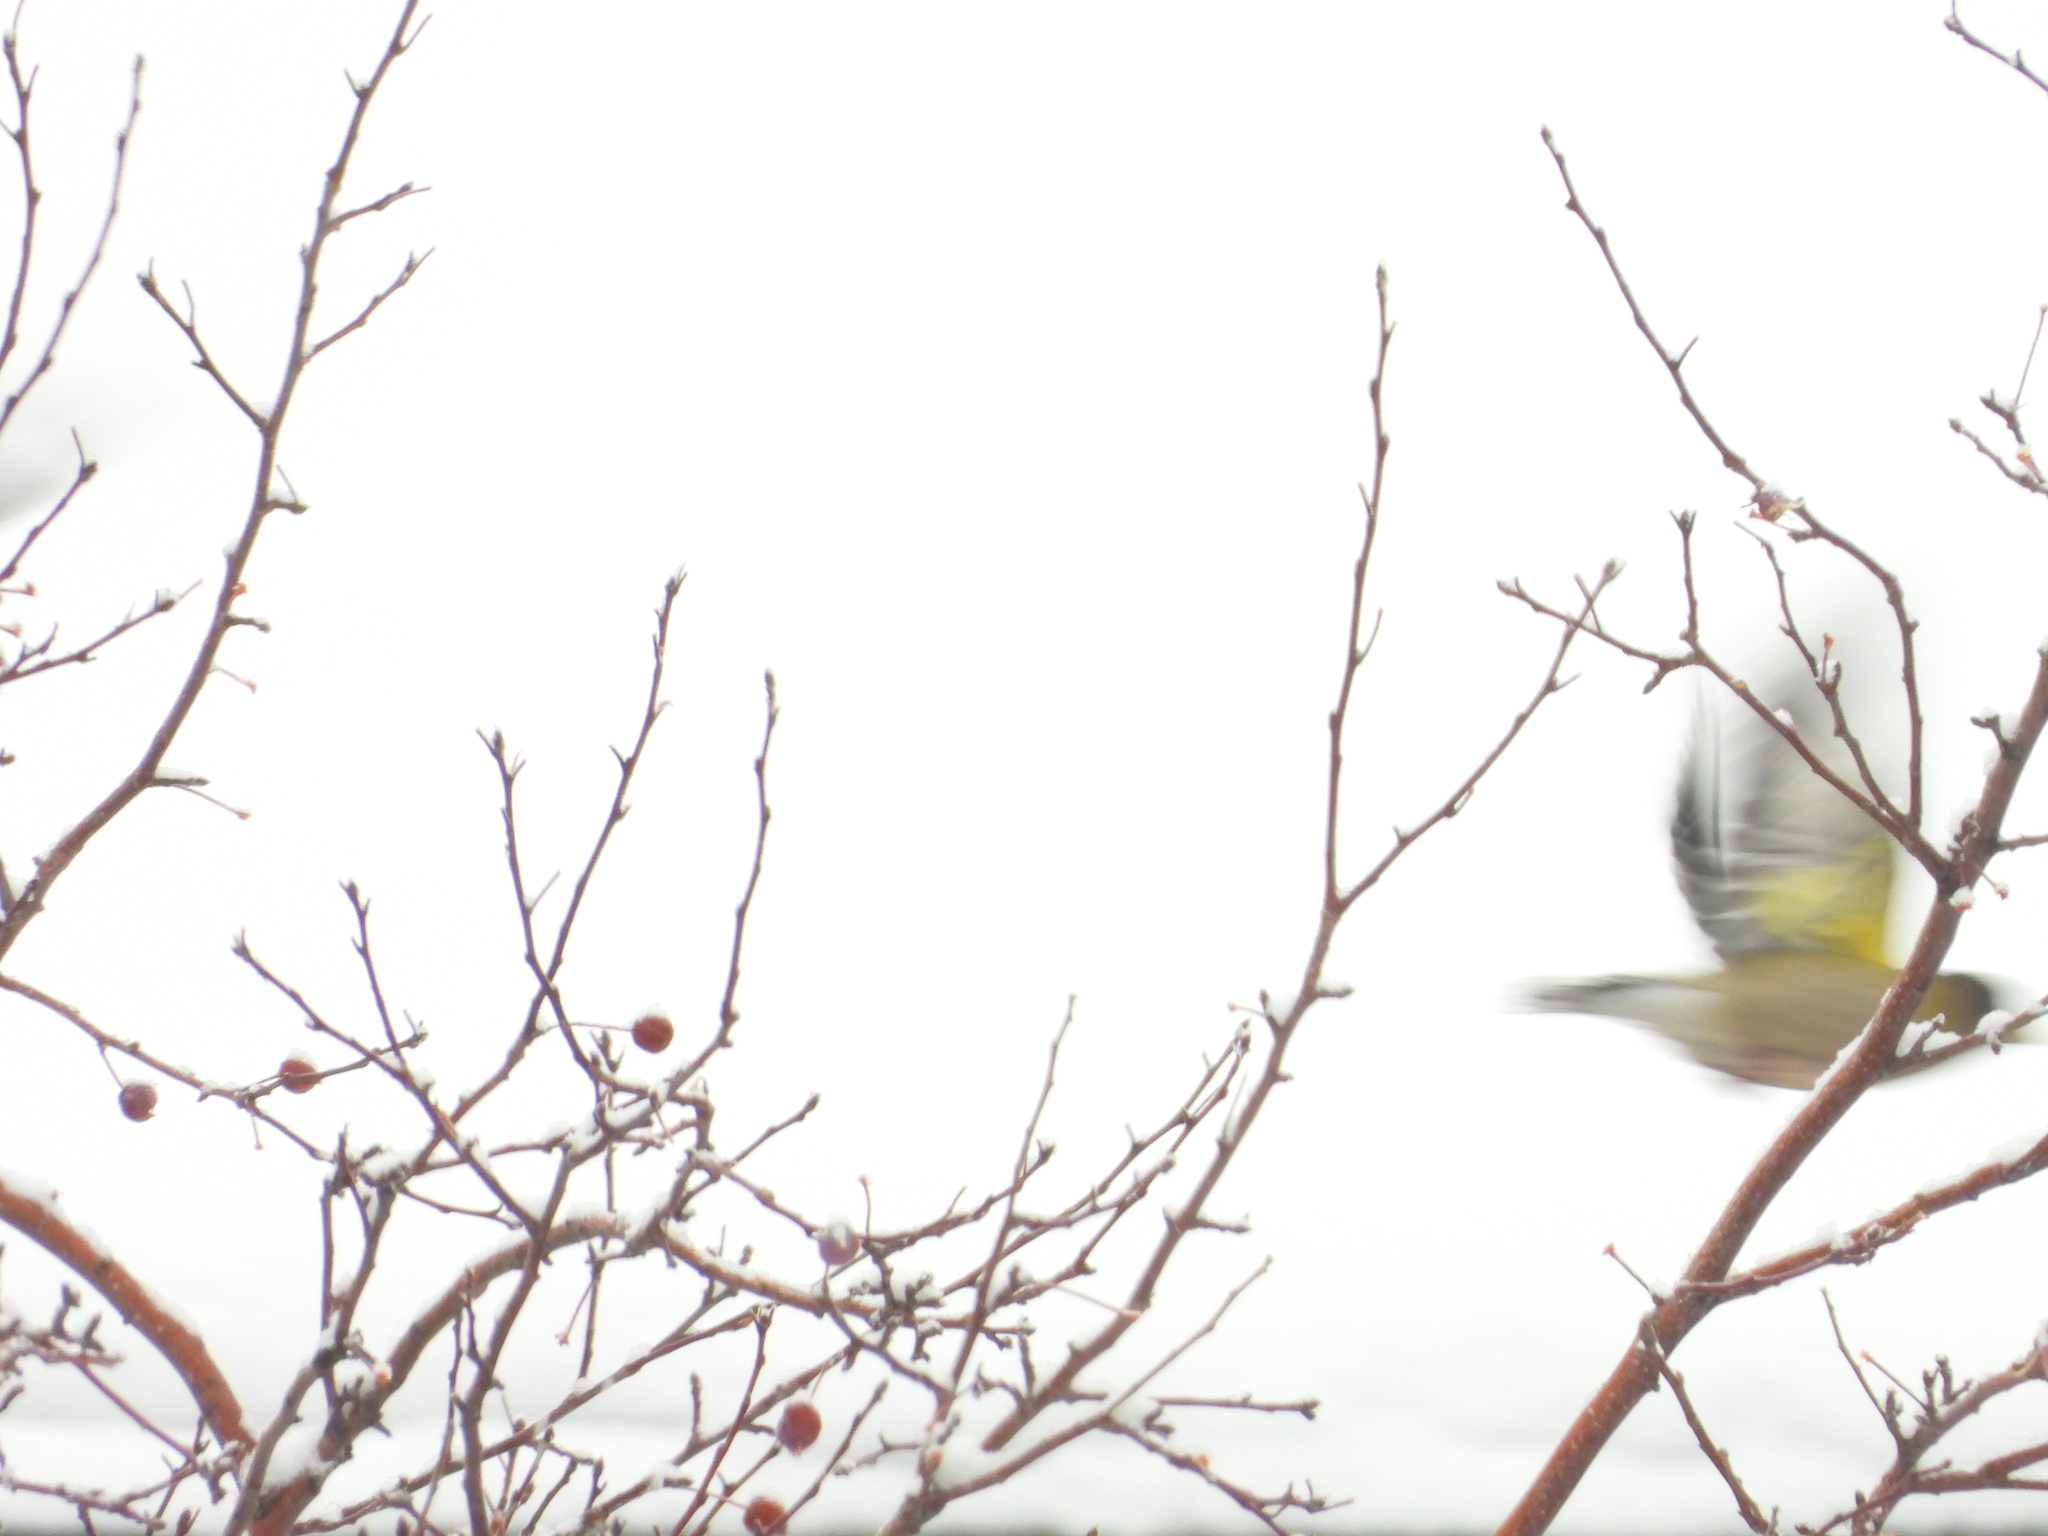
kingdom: Animalia
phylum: Chordata
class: Aves
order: Passeriformes
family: Fringillidae
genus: Hesperiphona
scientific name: Hesperiphona vespertina
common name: Evening grosbeak
